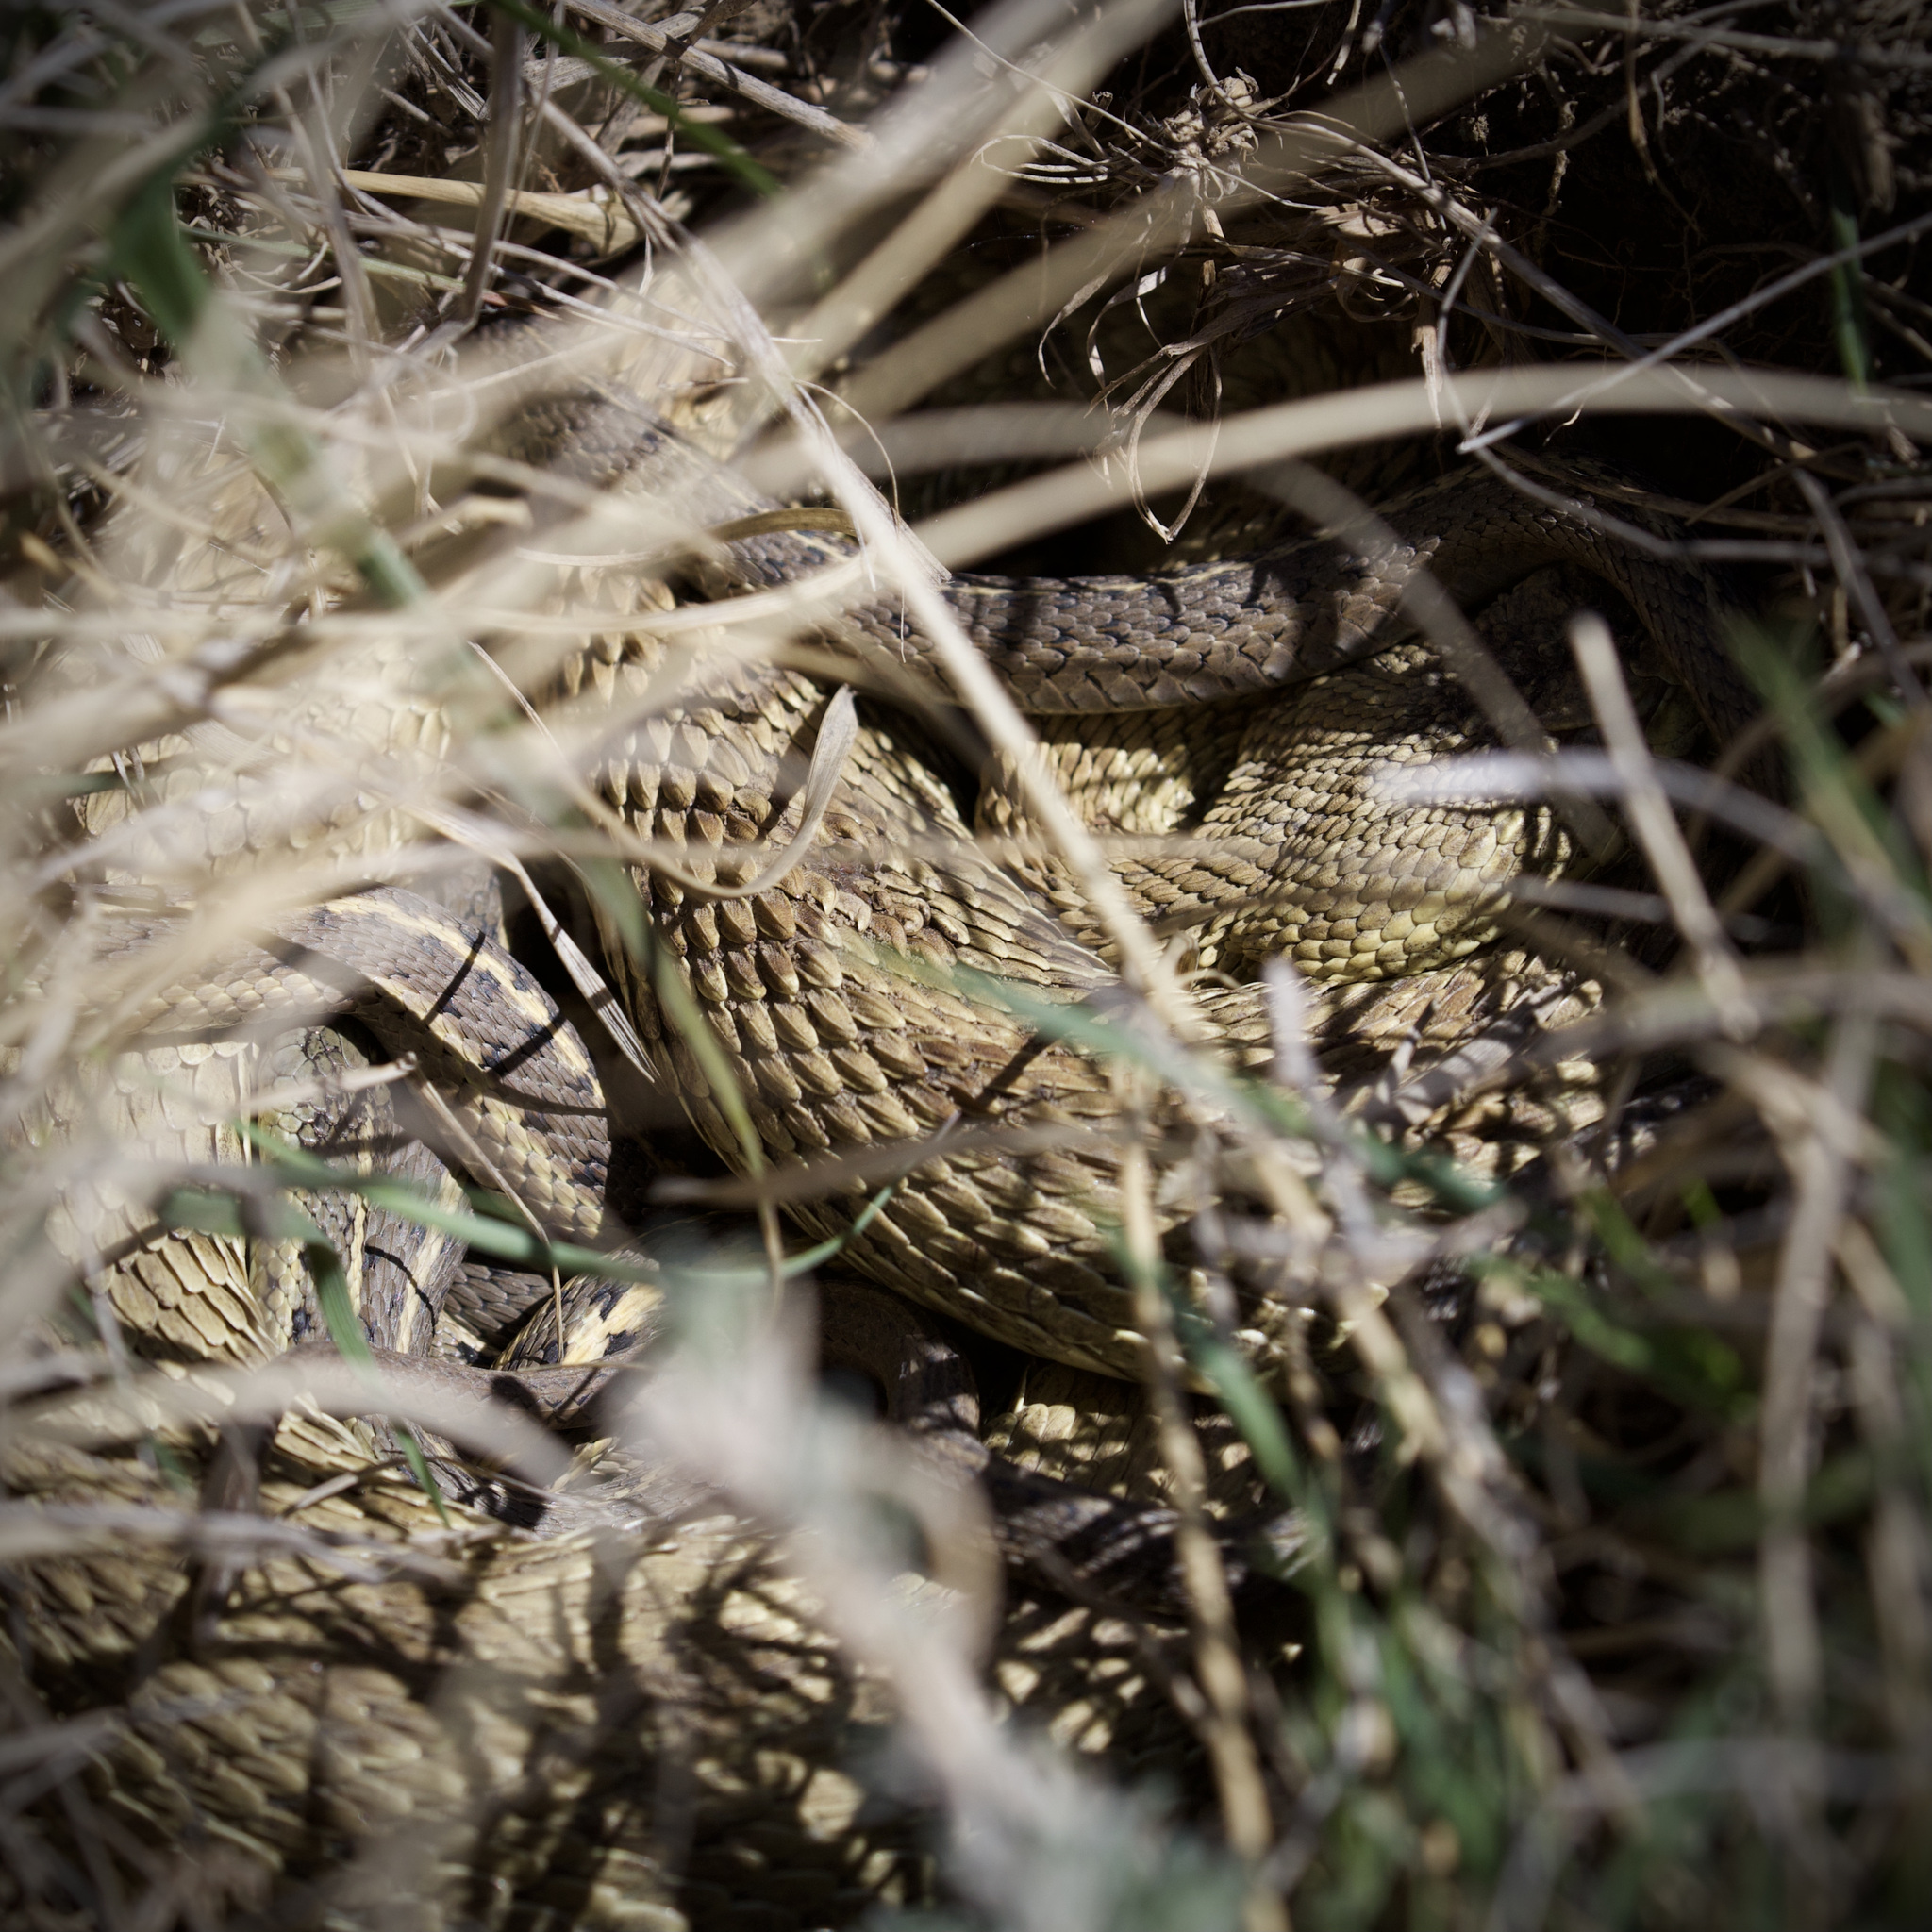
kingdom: Animalia
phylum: Chordata
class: Squamata
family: Colubridae
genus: Thamnophis
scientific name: Thamnophis elegans
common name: Western terrestrial garter snake
